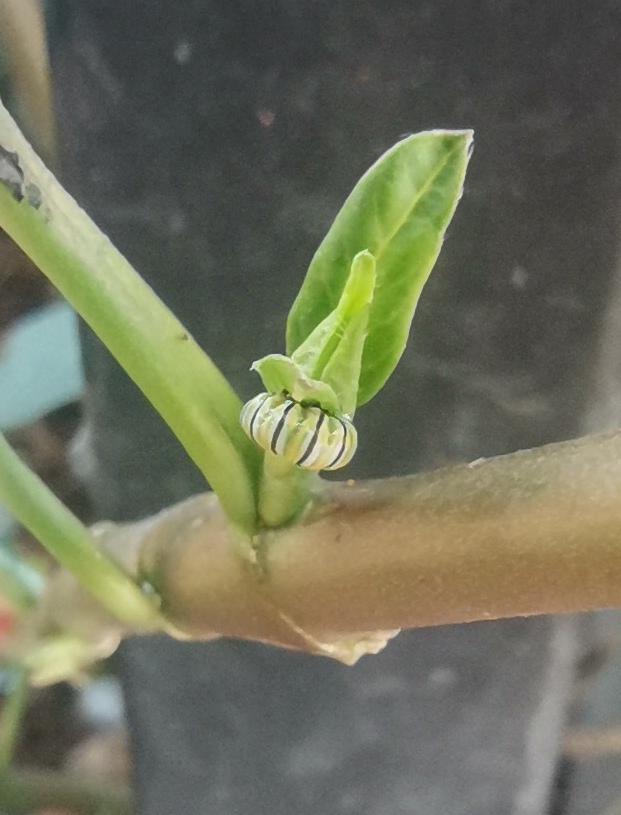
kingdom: Animalia
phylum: Arthropoda
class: Insecta
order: Lepidoptera
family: Nymphalidae
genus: Danaus
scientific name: Danaus plexippus
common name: Monarch
